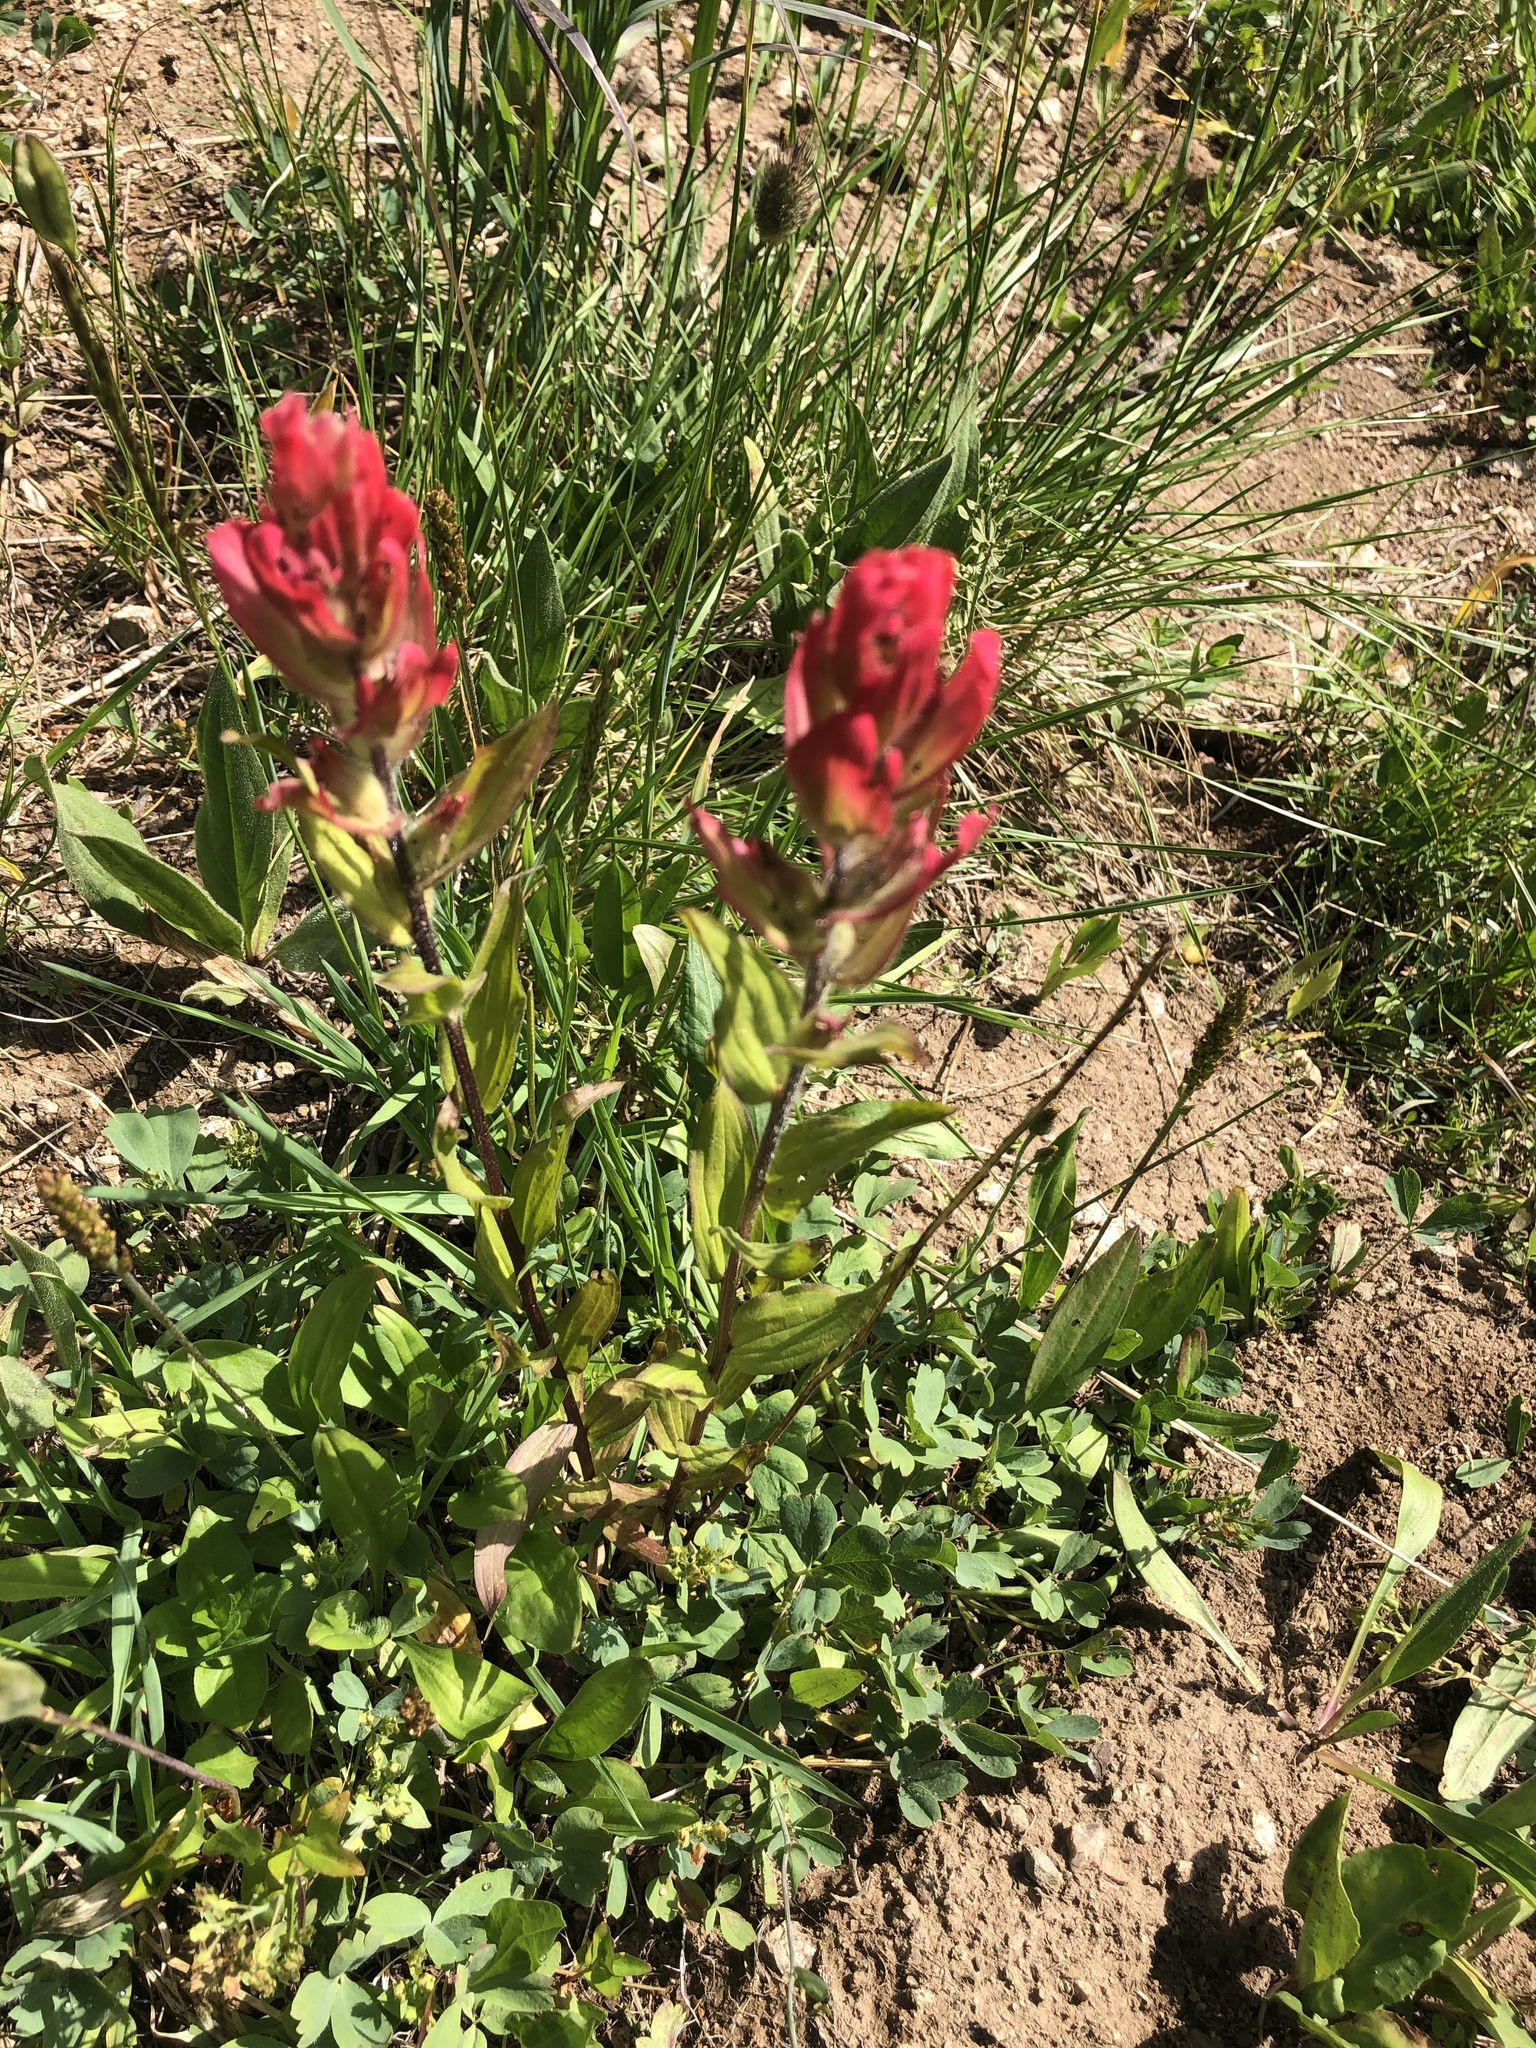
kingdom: Plantae
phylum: Tracheophyta
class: Magnoliopsida
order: Lamiales
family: Orobanchaceae
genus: Castilleja
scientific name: Castilleja rhexifolia
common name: Rocky mountain paintbrush
